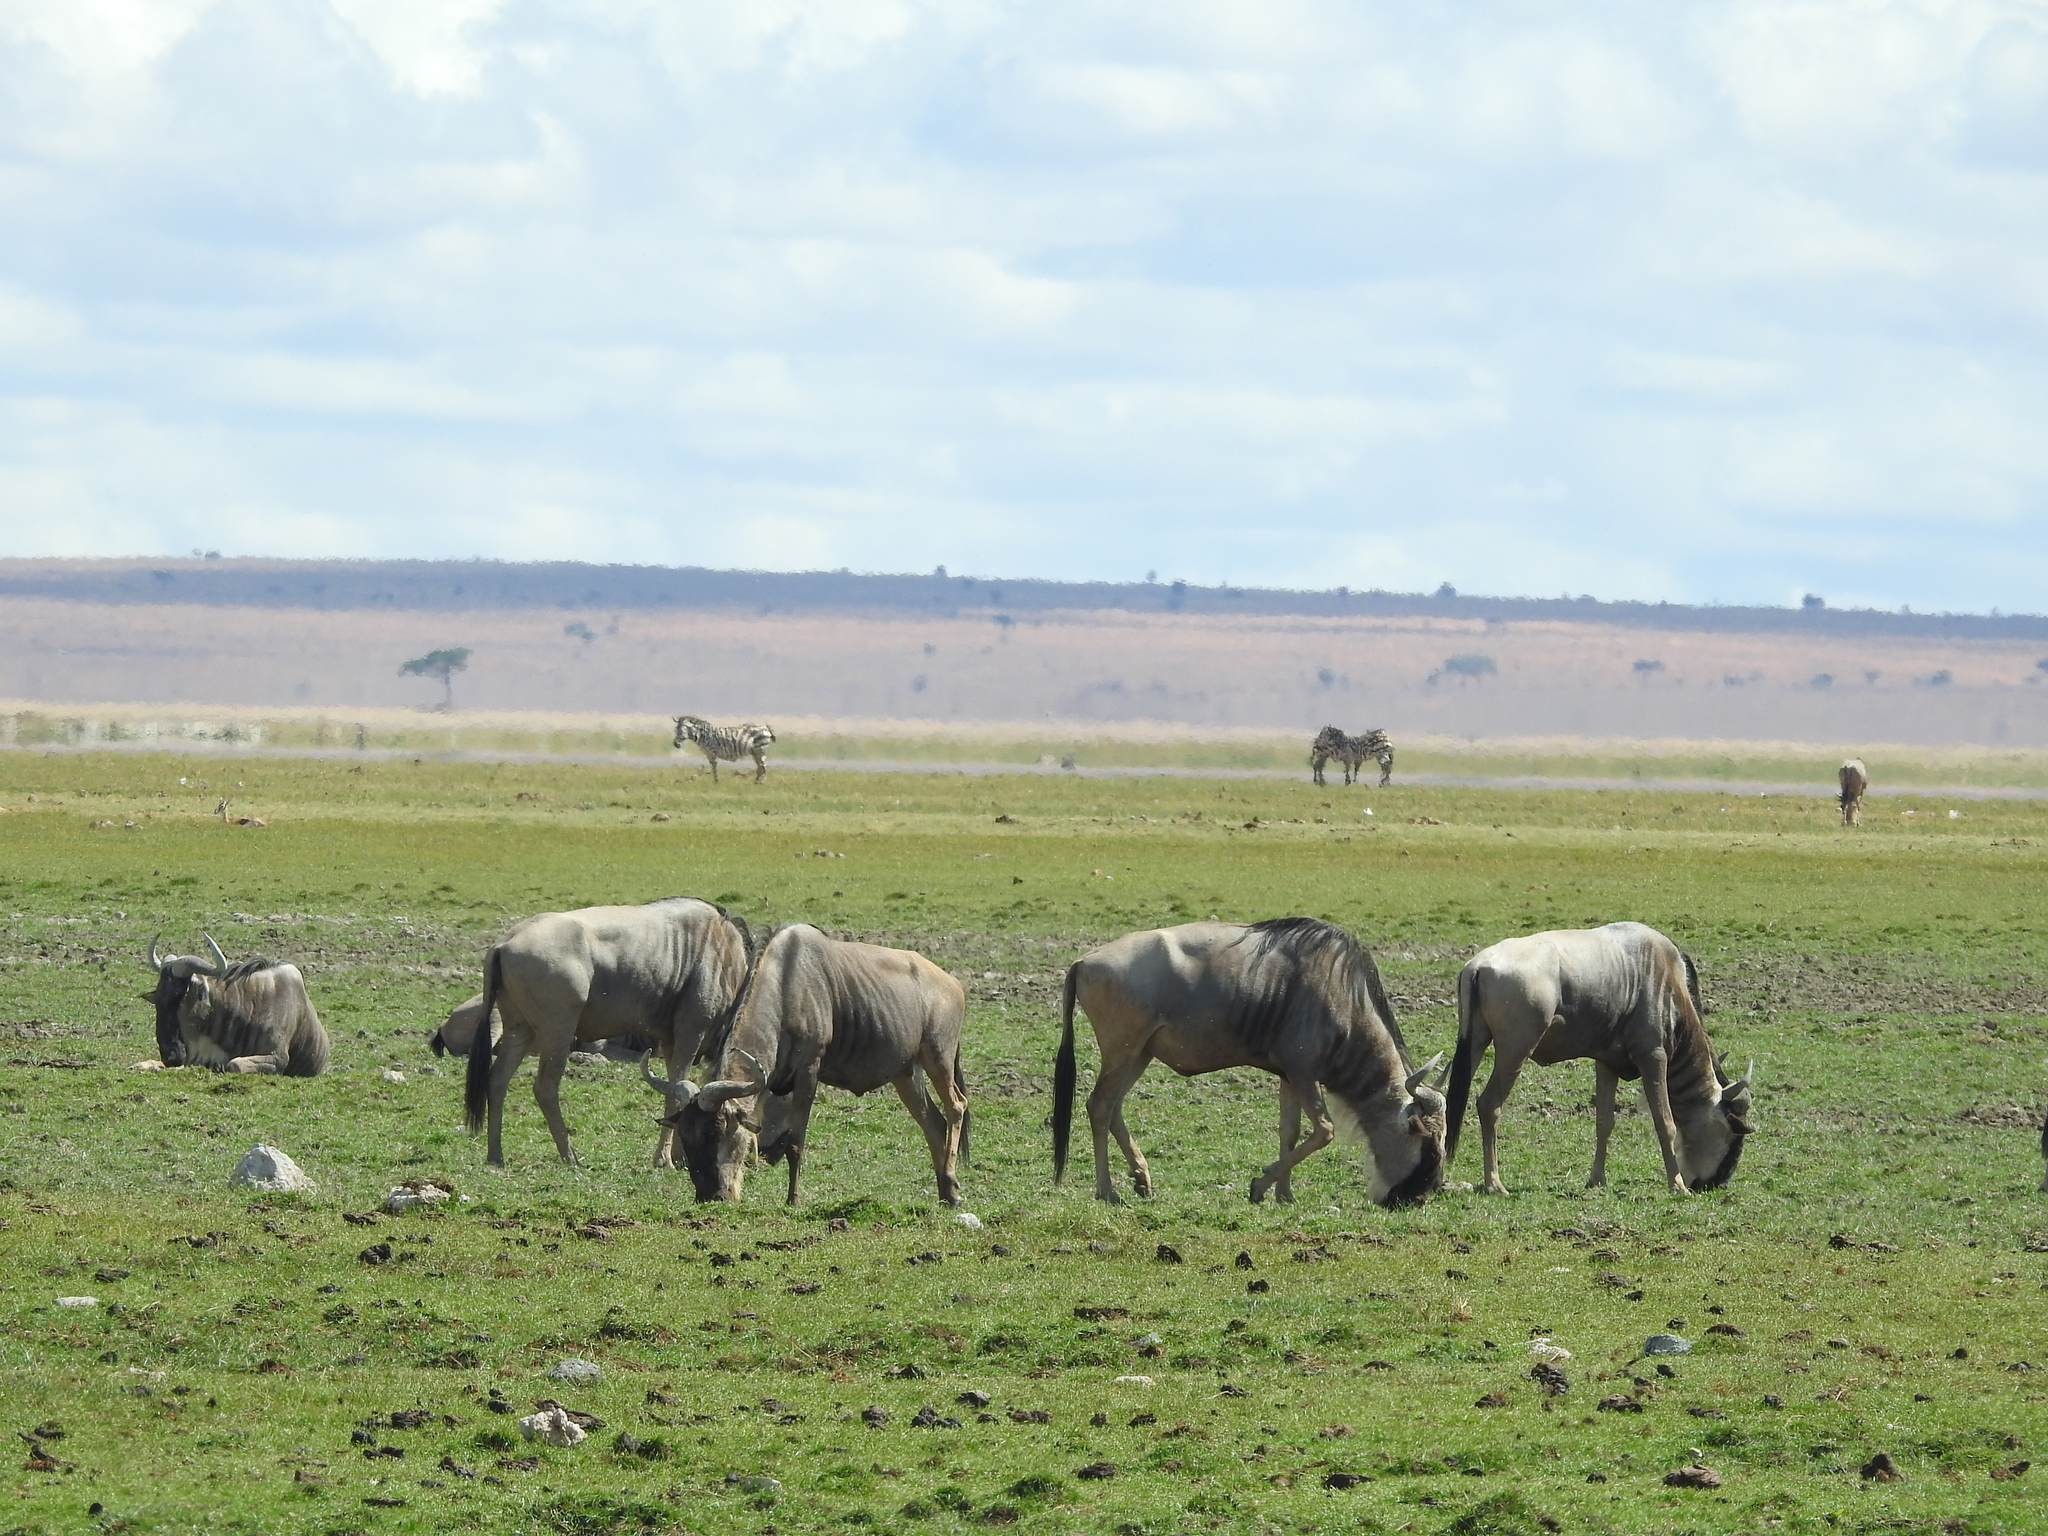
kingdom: Animalia
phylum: Chordata
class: Mammalia
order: Artiodactyla
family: Bovidae
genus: Connochaetes
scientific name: Connochaetes taurinus
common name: Blue wildebeest
